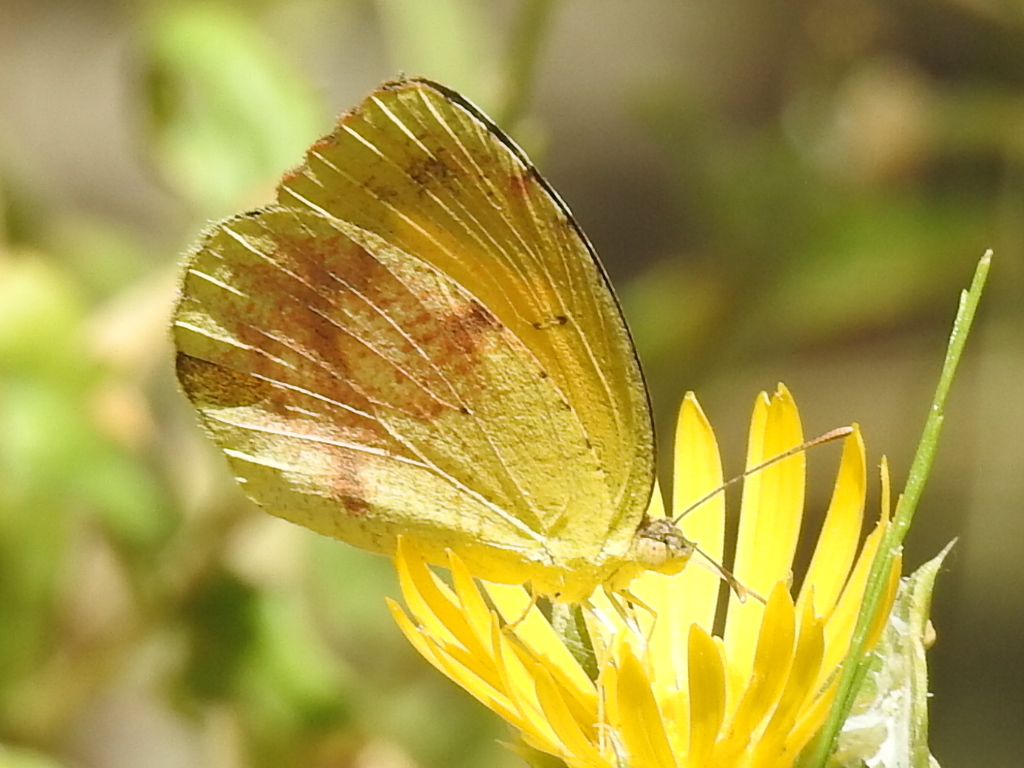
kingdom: Animalia
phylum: Arthropoda
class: Insecta
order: Lepidoptera
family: Pieridae
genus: Abaeis
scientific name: Abaeis nicippe
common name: Sleepy orange
